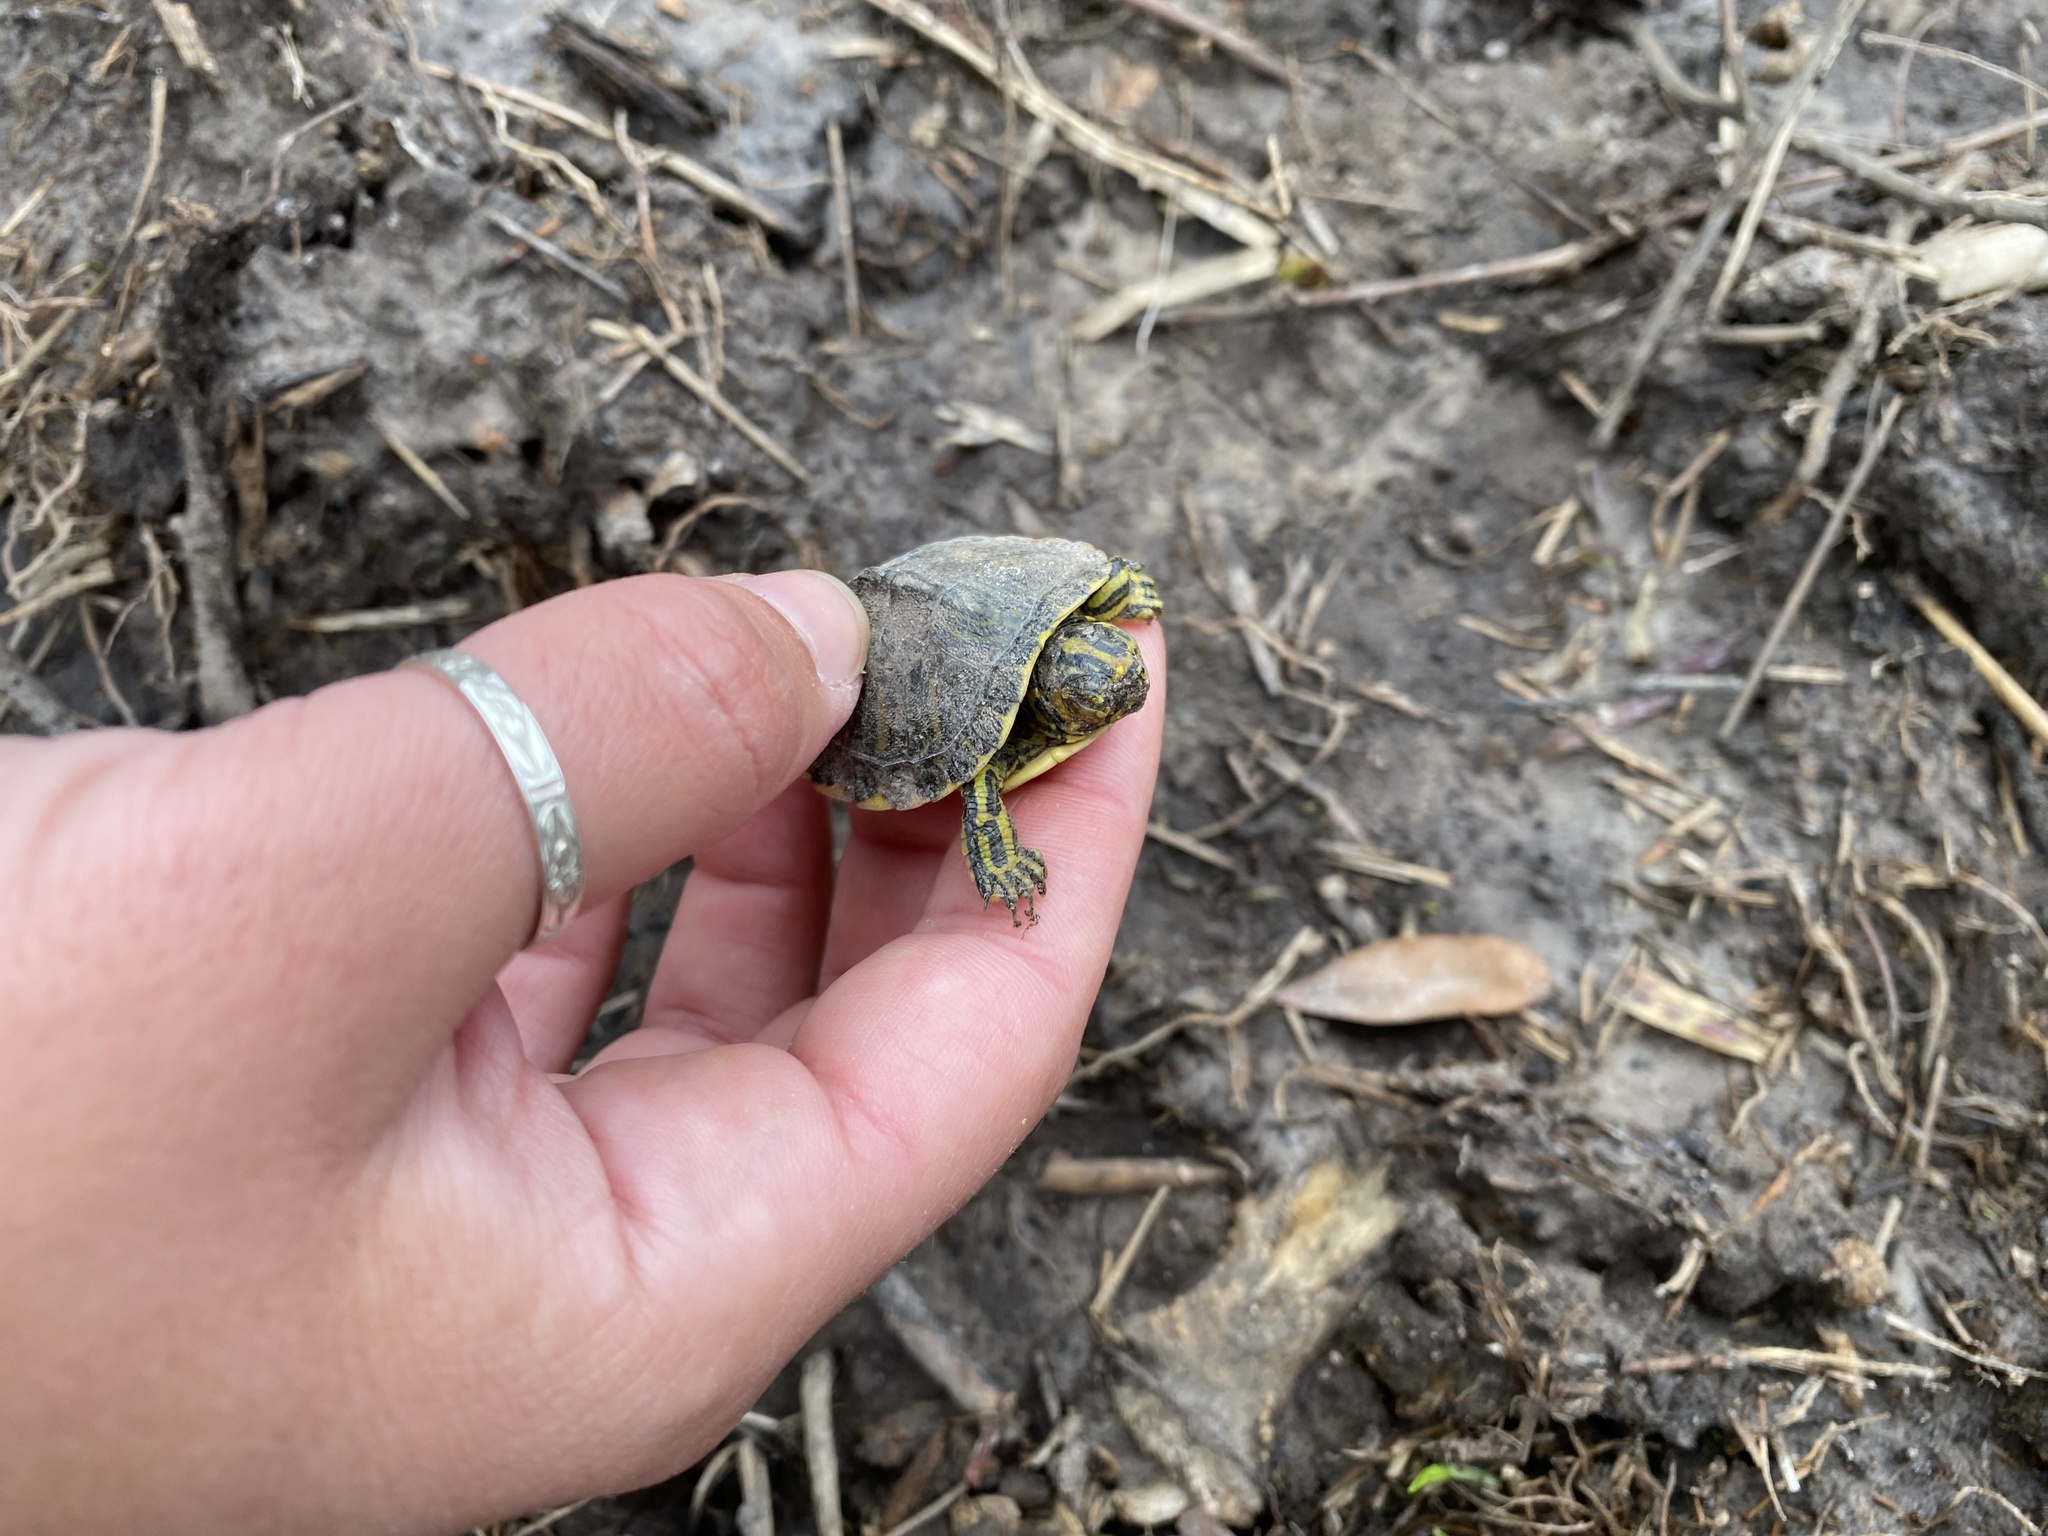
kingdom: Animalia
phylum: Chordata
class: Testudines
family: Emydidae
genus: Trachemys
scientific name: Trachemys scripta
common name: Slider
